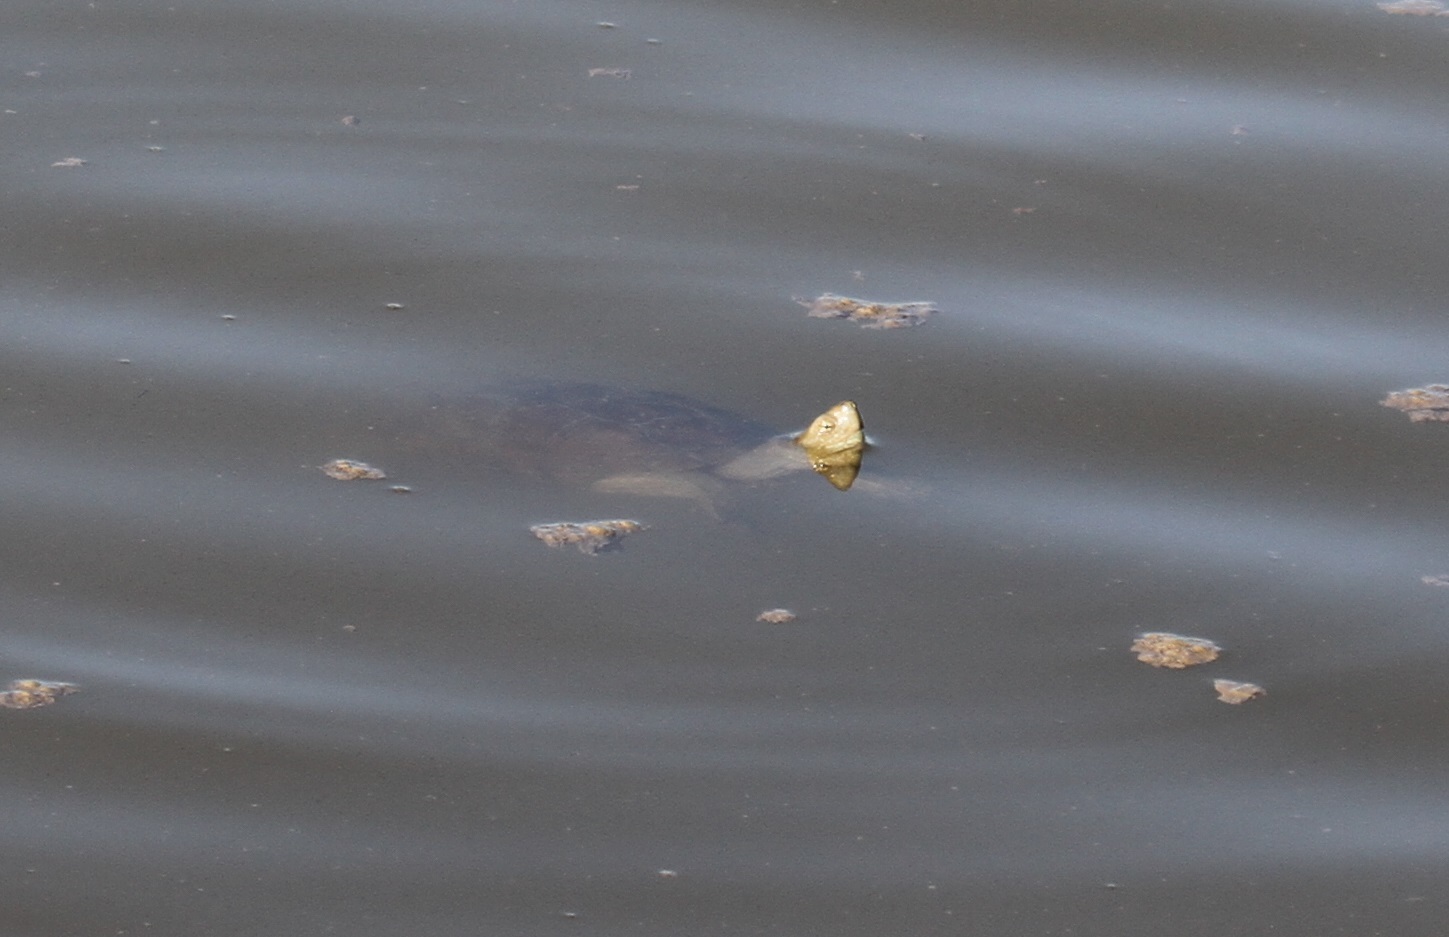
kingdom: Animalia
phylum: Chordata
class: Testudines
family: Geoemydidae
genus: Mauremys
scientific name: Mauremys leprosa
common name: Mediterranean pond turtle
